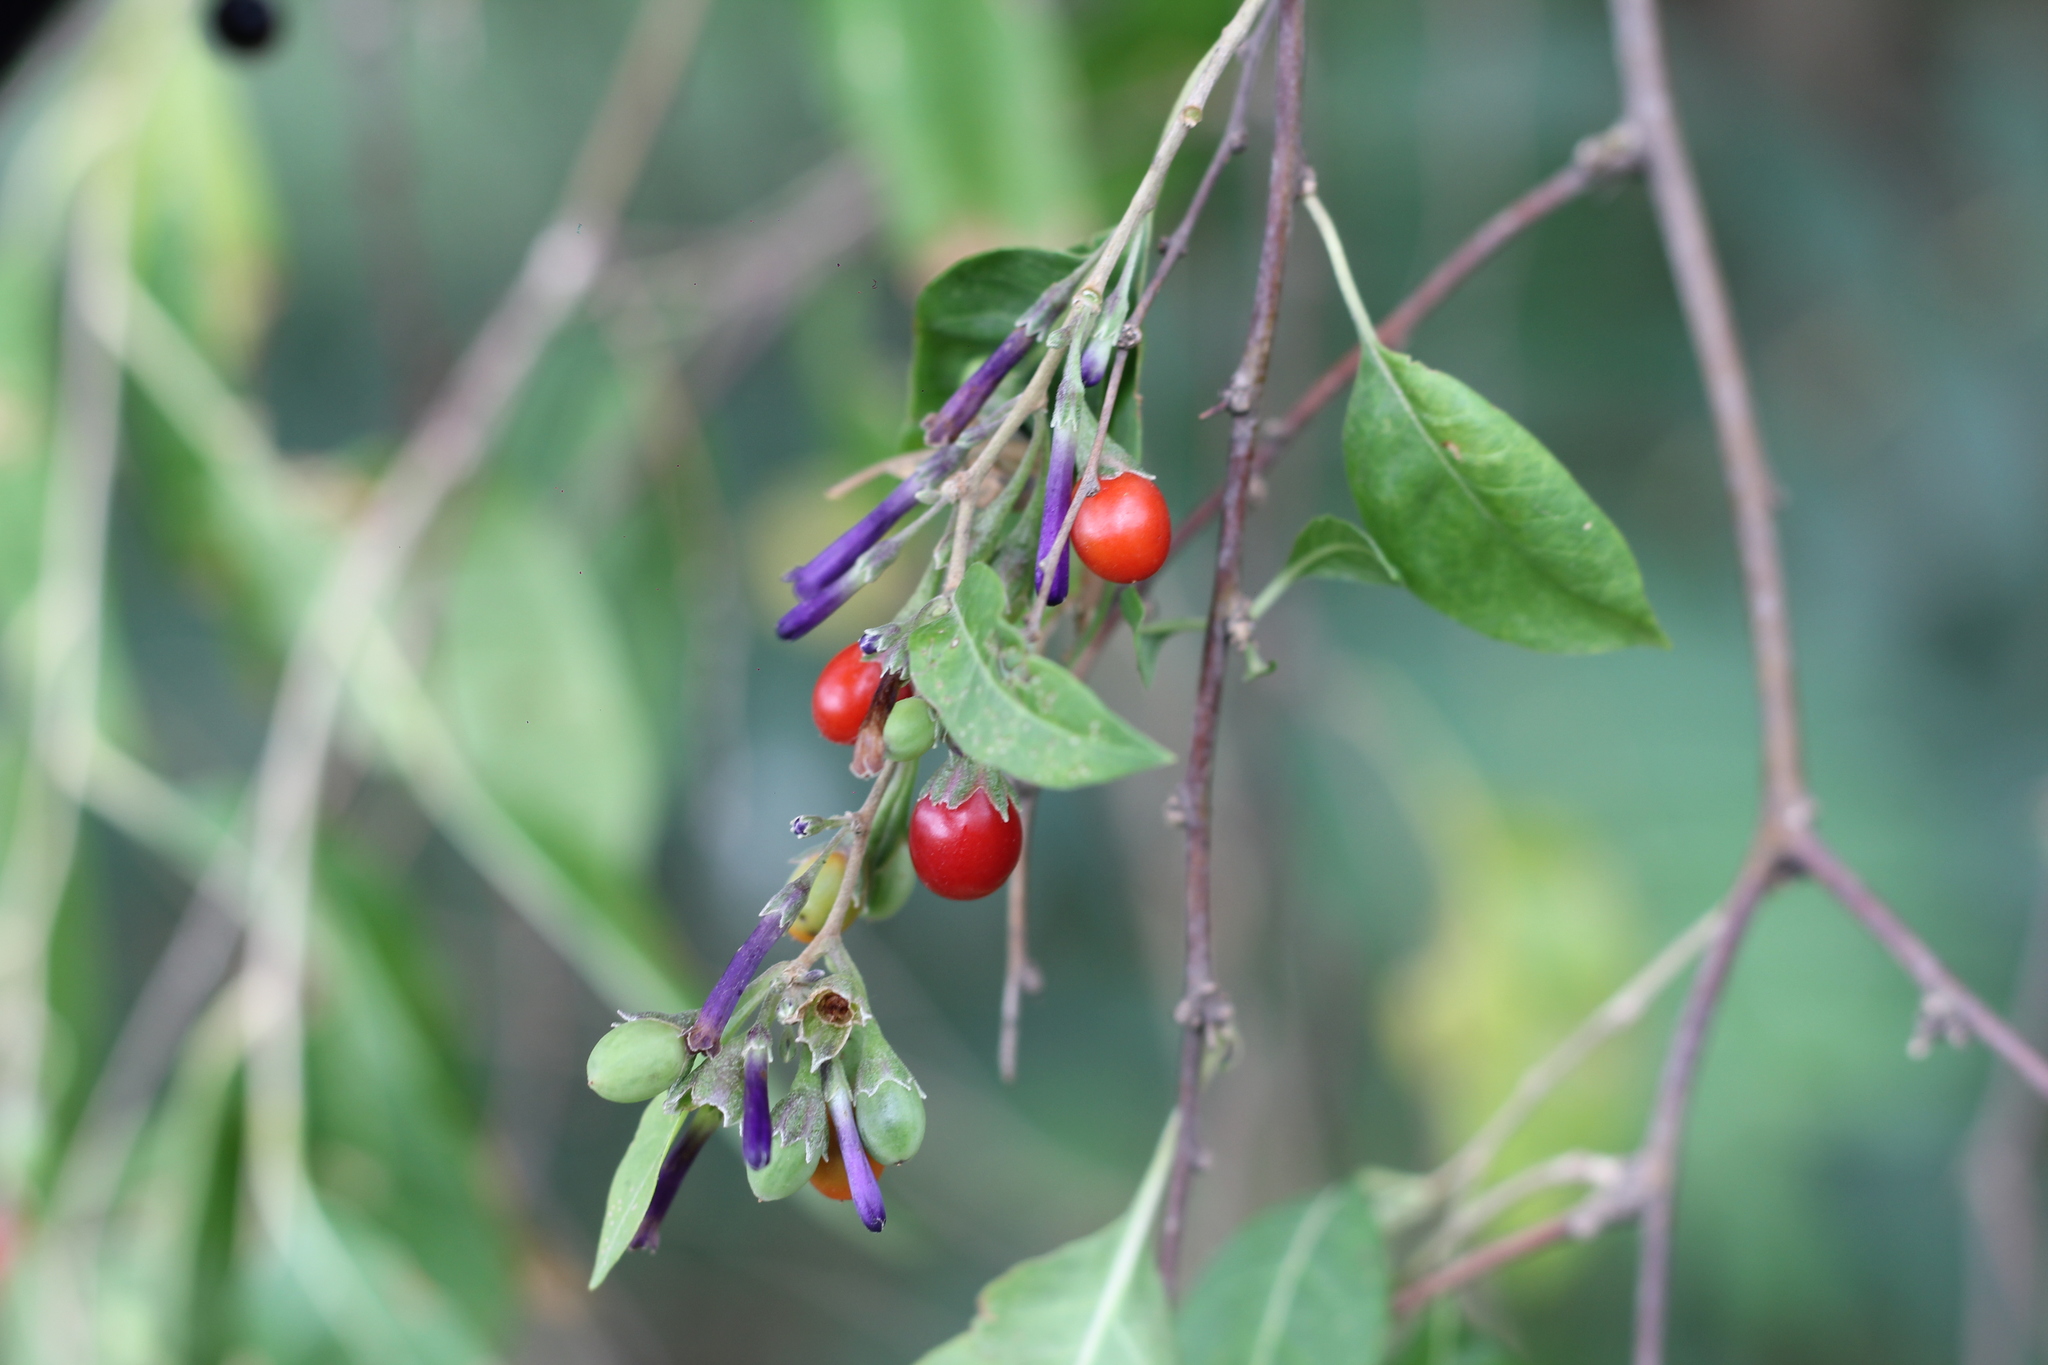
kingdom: Plantae
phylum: Tracheophyta
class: Magnoliopsida
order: Solanales
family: Solanaceae
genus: Lycium
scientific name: Lycium cestroides
